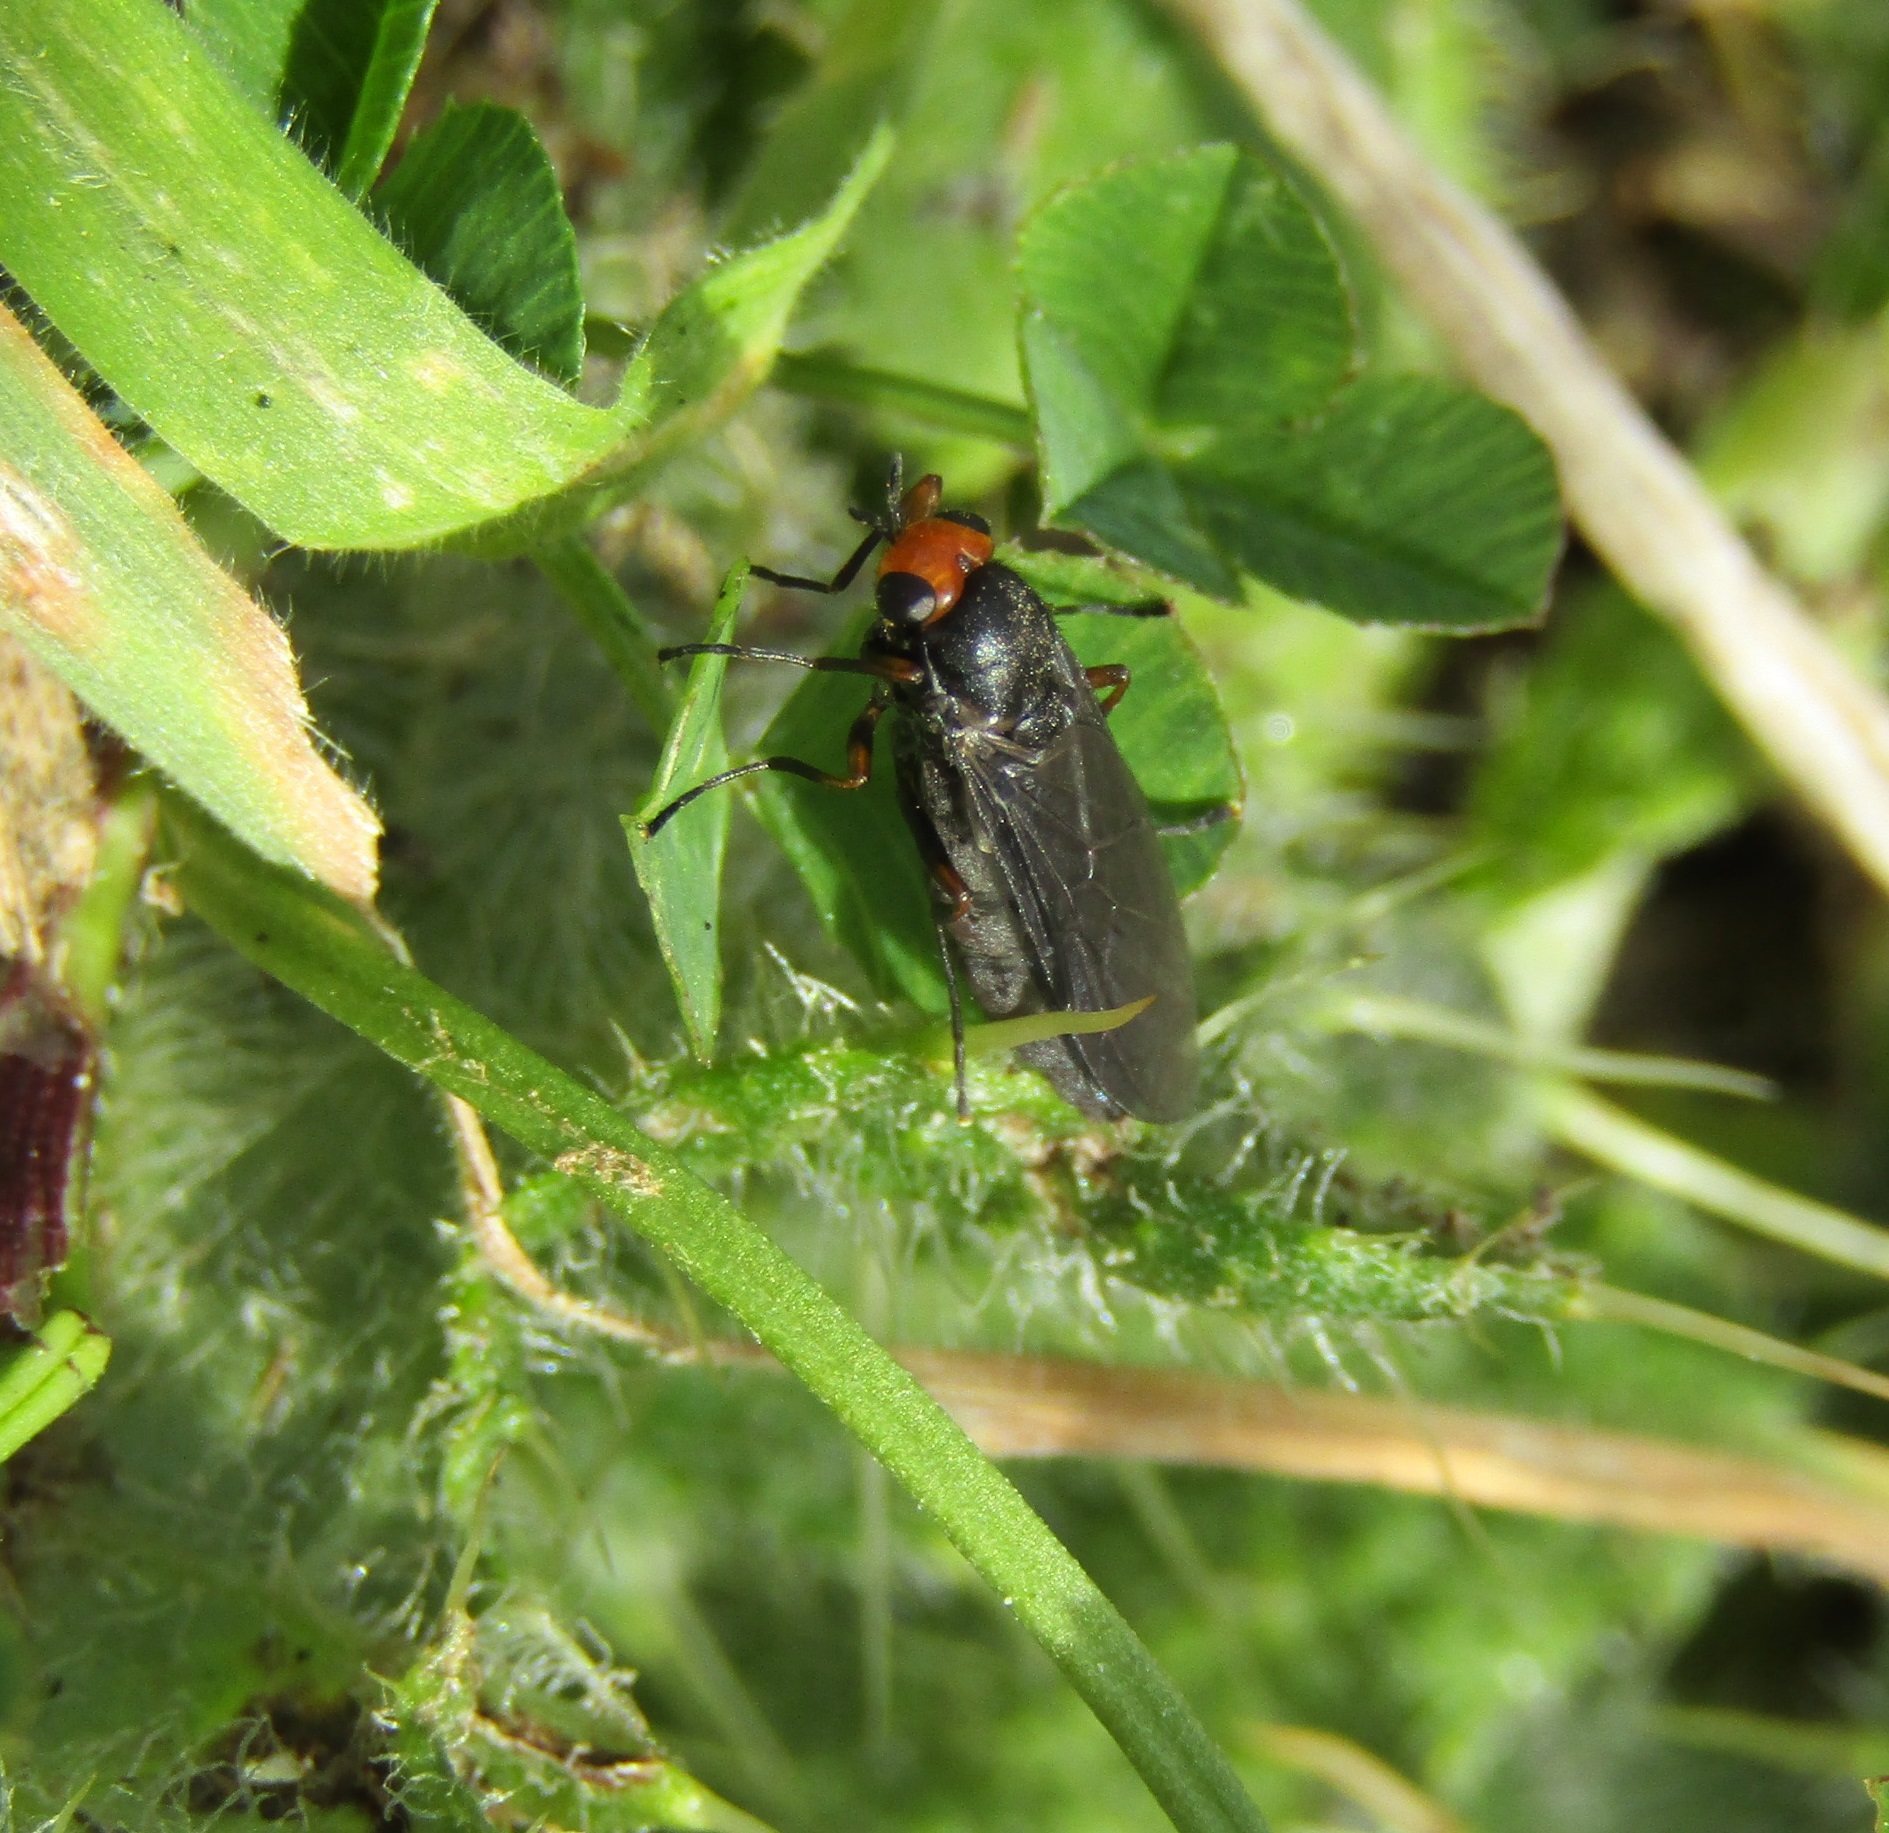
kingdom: Animalia
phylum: Arthropoda
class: Insecta
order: Diptera
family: Stratiomyidae
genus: Inopus
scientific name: Inopus rubriceps
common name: Soldier fly
